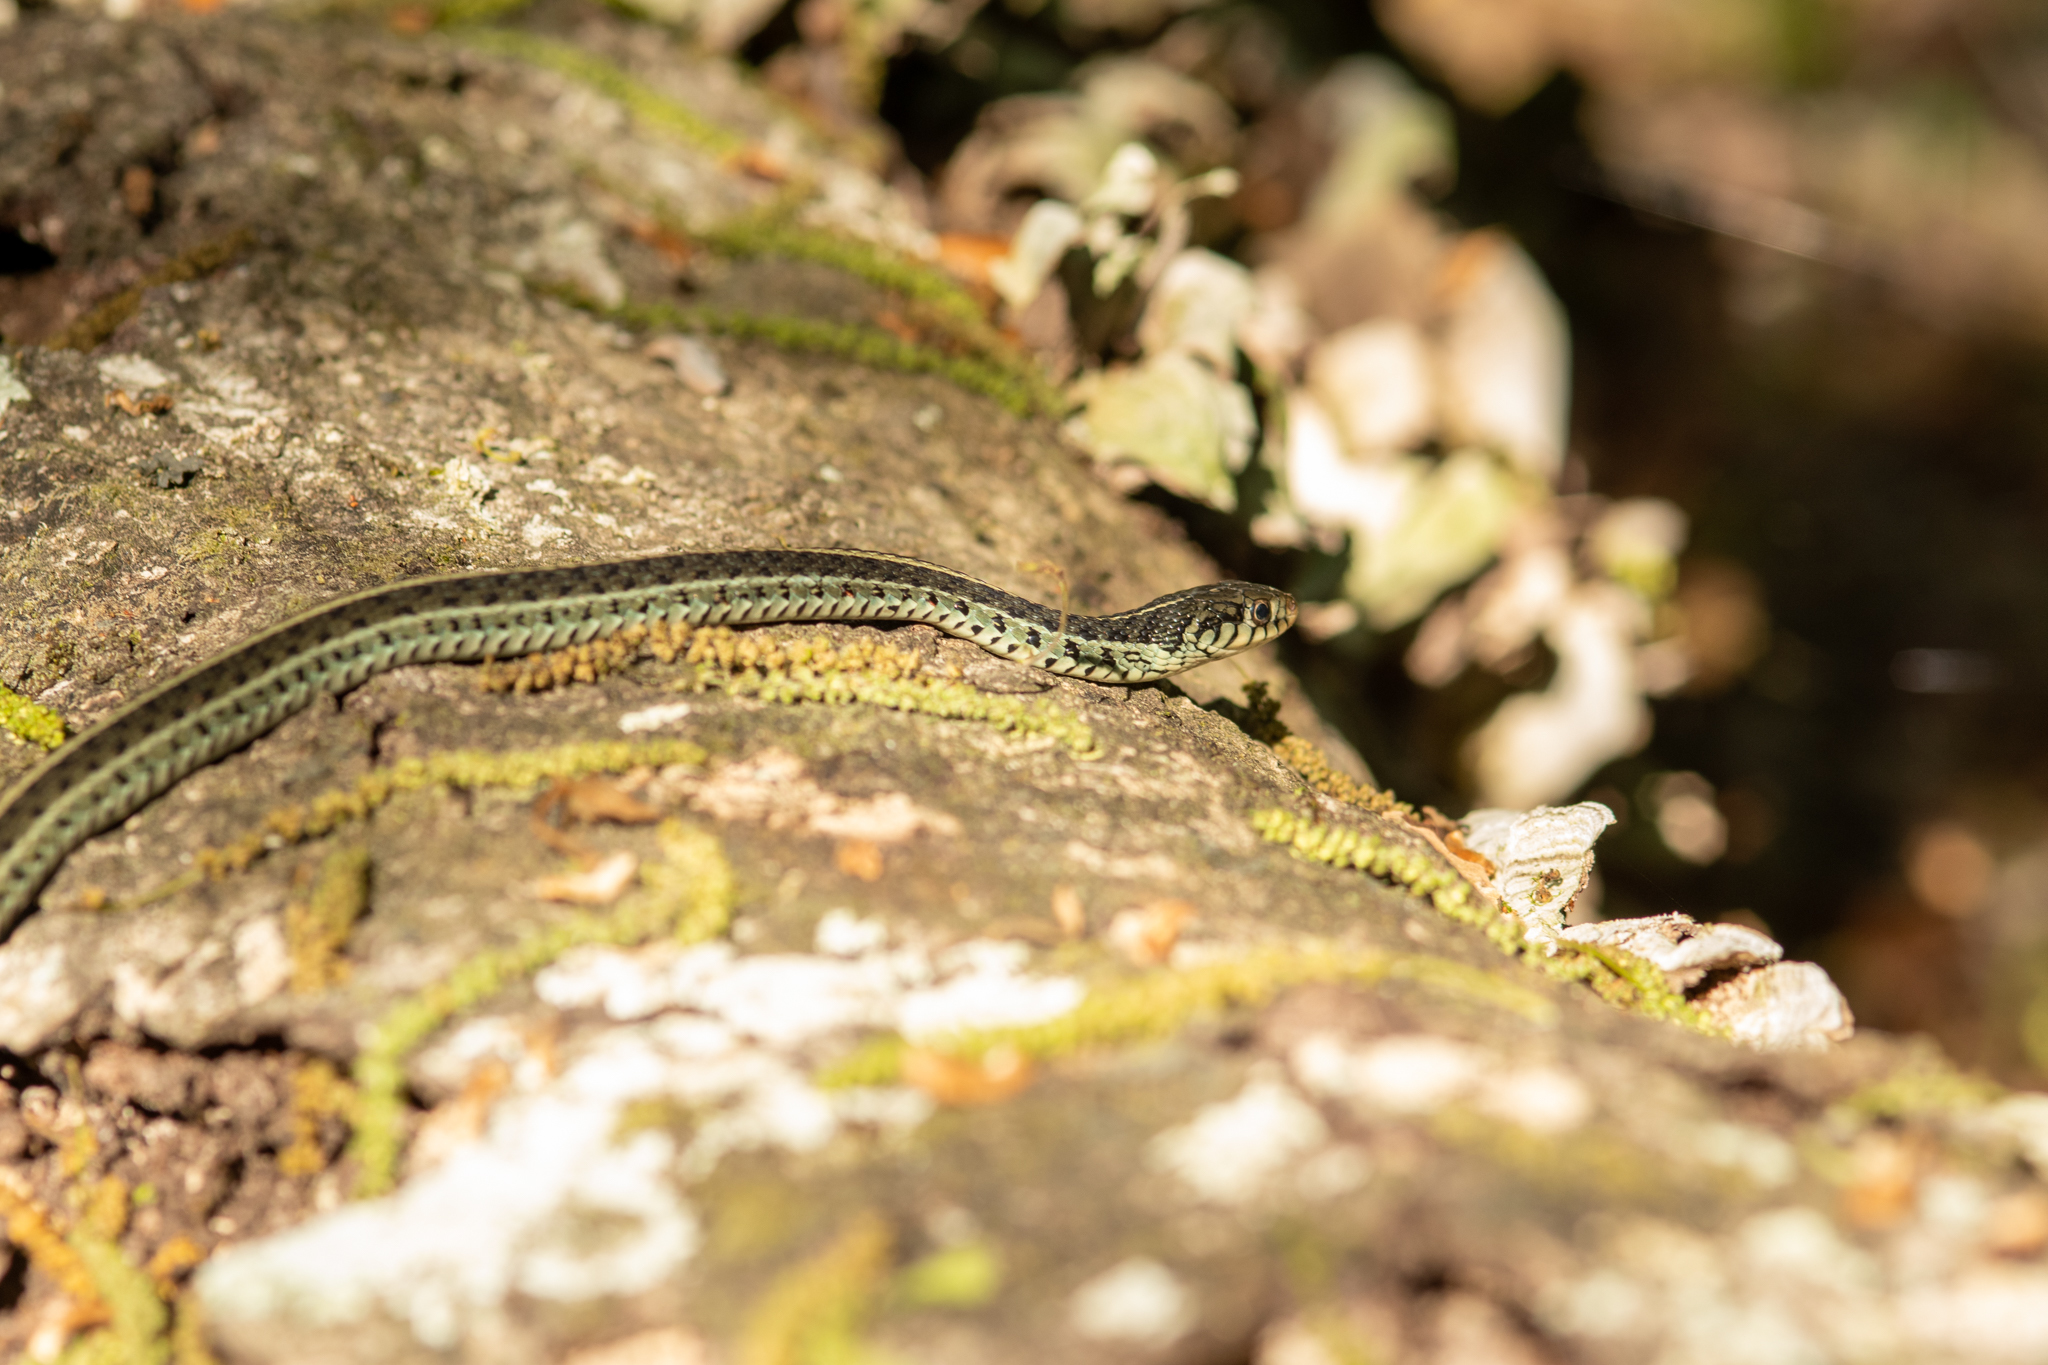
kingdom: Animalia
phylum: Chordata
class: Squamata
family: Colubridae
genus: Thamnophis
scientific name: Thamnophis sirtalis
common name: Common garter snake
